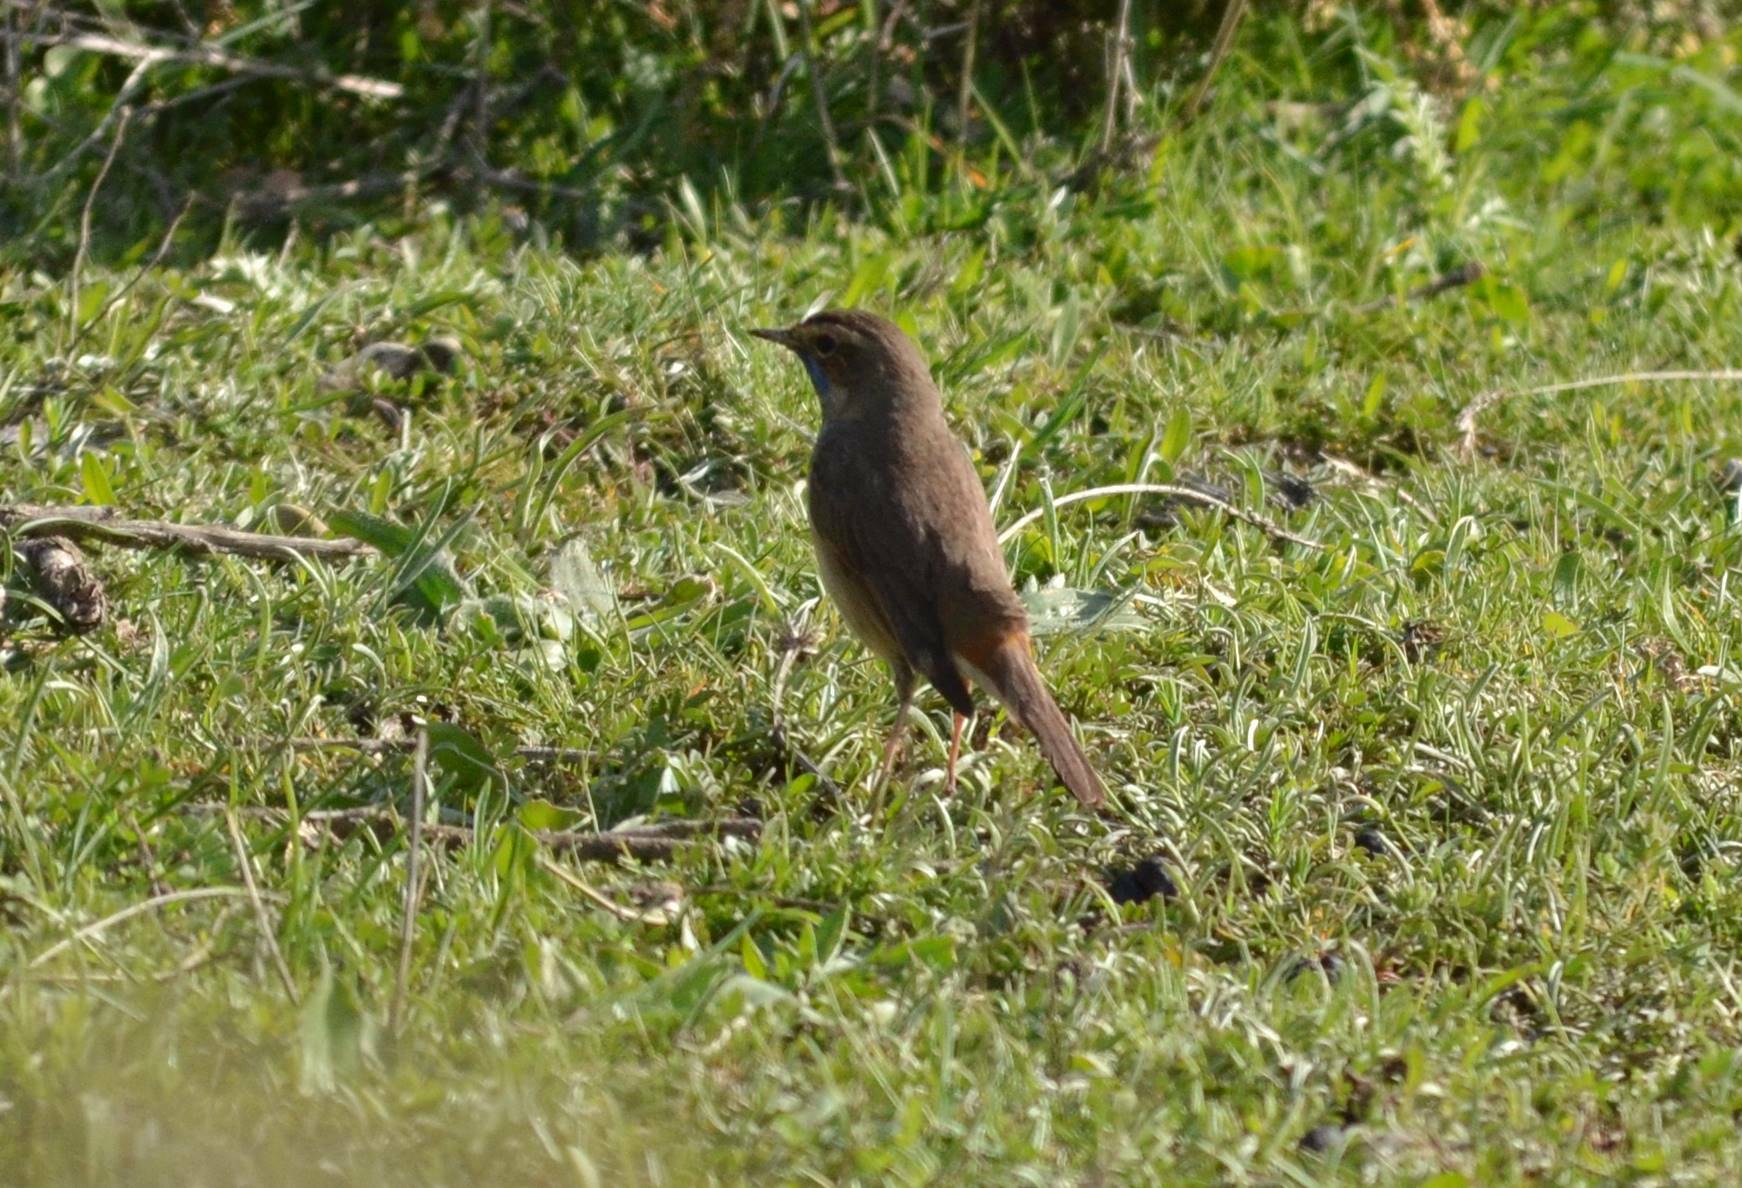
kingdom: Animalia
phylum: Chordata
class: Aves
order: Passeriformes
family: Muscicapidae
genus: Luscinia
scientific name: Luscinia svecica
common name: Bluethroat
